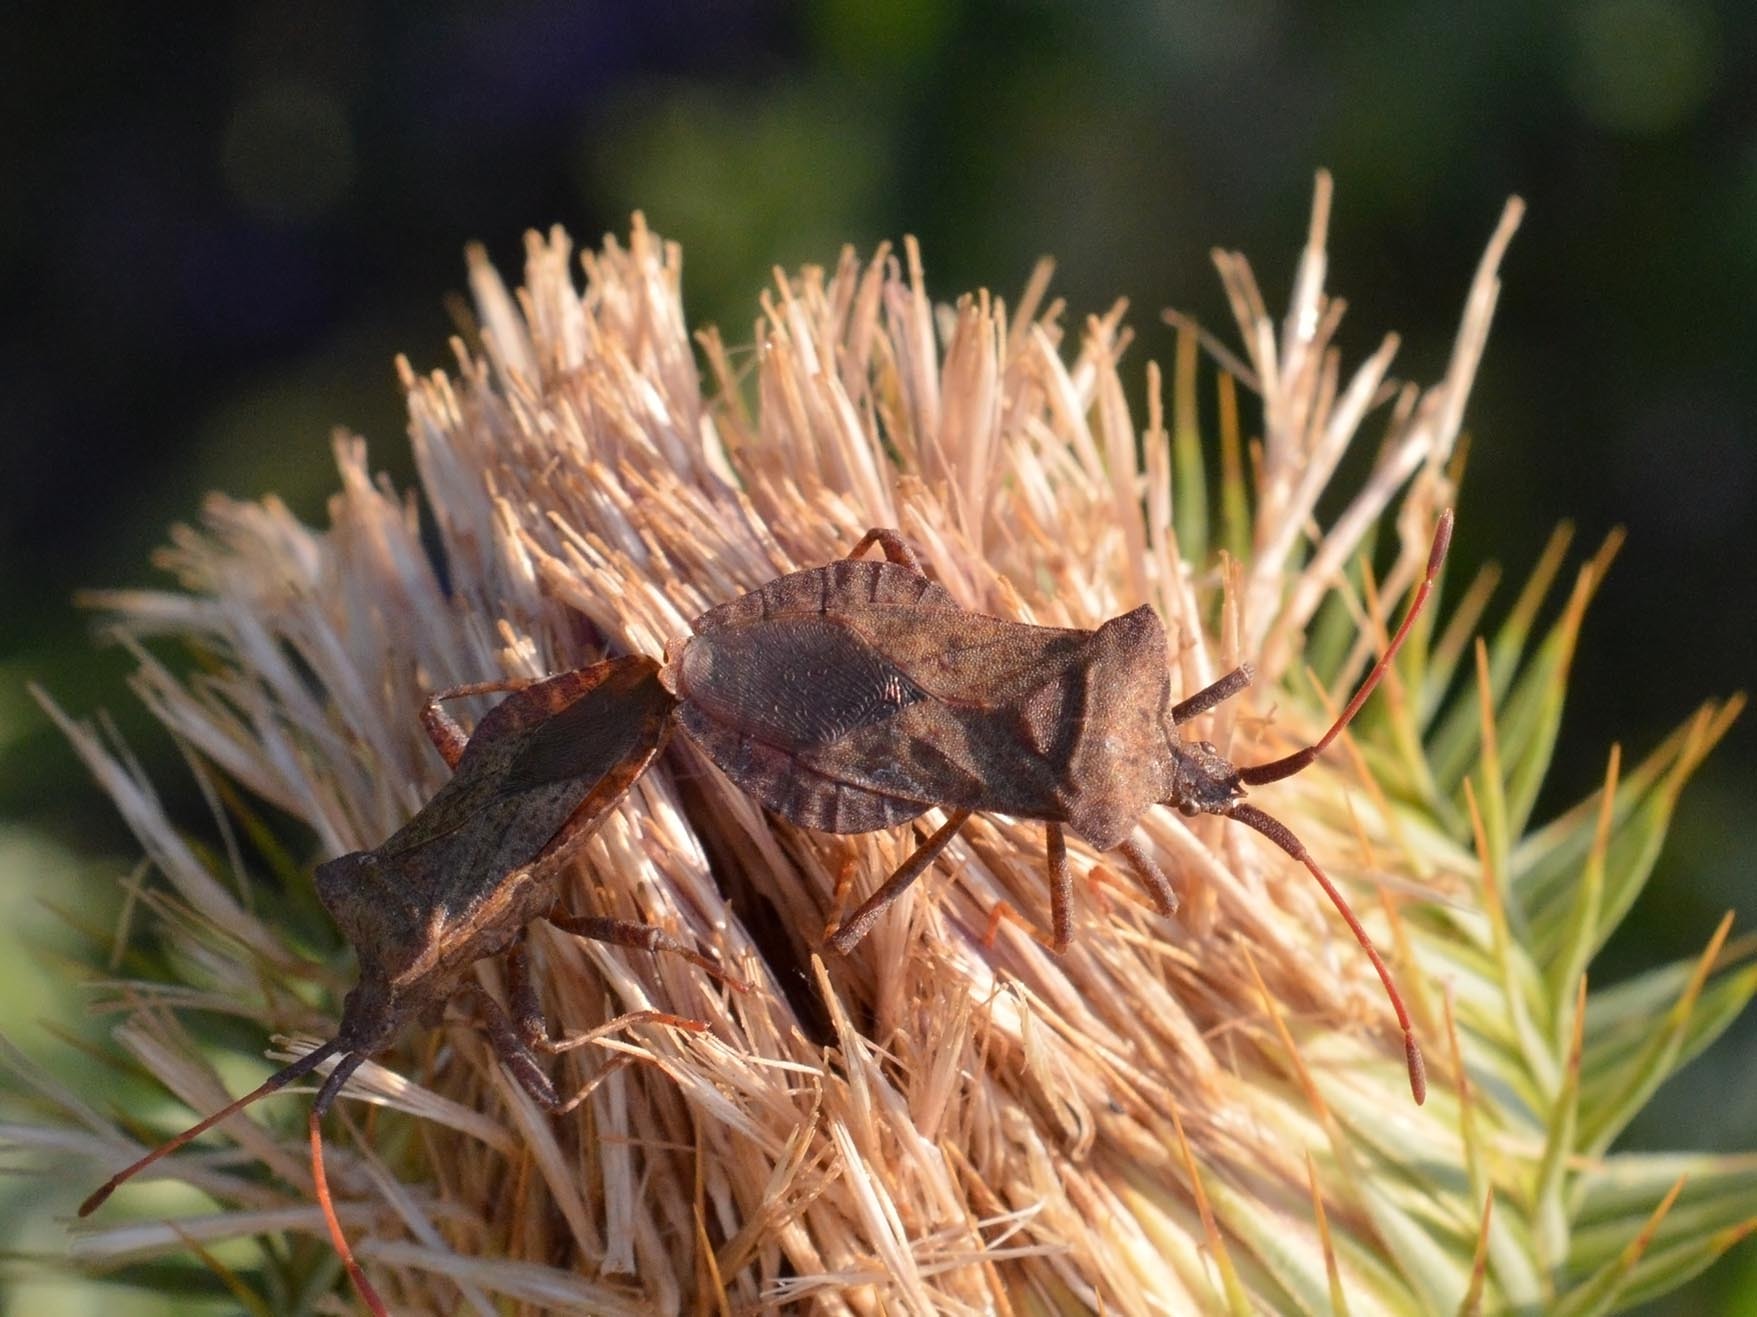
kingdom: Animalia
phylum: Arthropoda
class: Insecta
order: Hemiptera
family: Coreidae
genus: Coreus
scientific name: Coreus marginatus
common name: Dock bug
